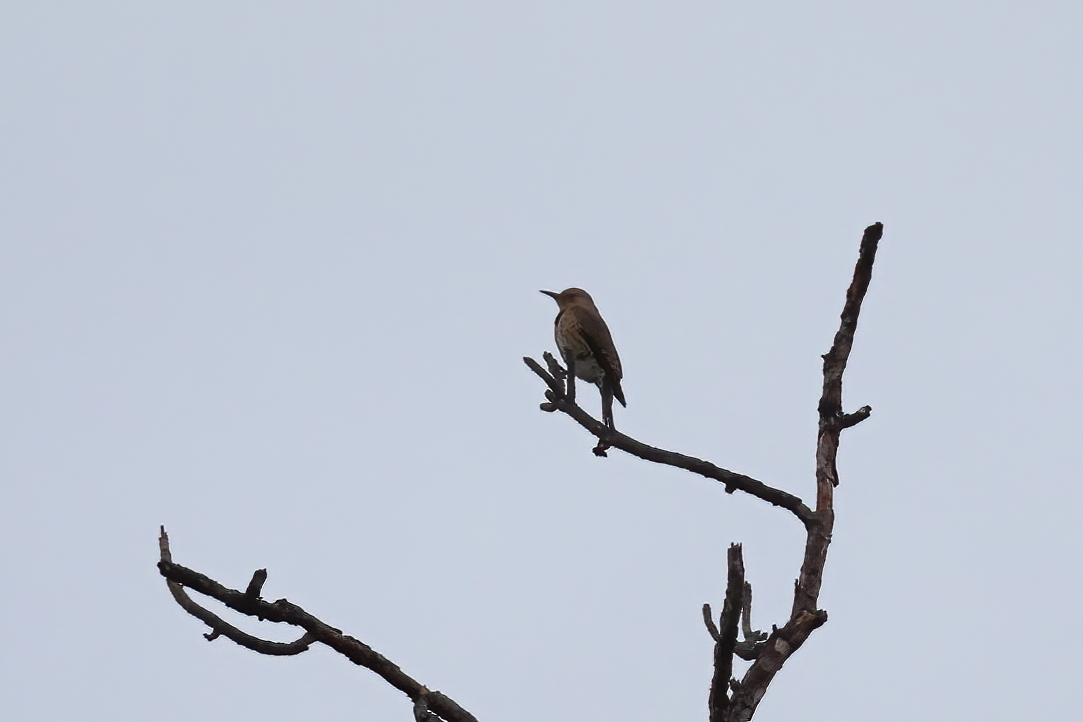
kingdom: Animalia
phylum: Chordata
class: Aves
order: Piciformes
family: Picidae
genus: Colaptes
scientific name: Colaptes auratus
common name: Northern flicker
